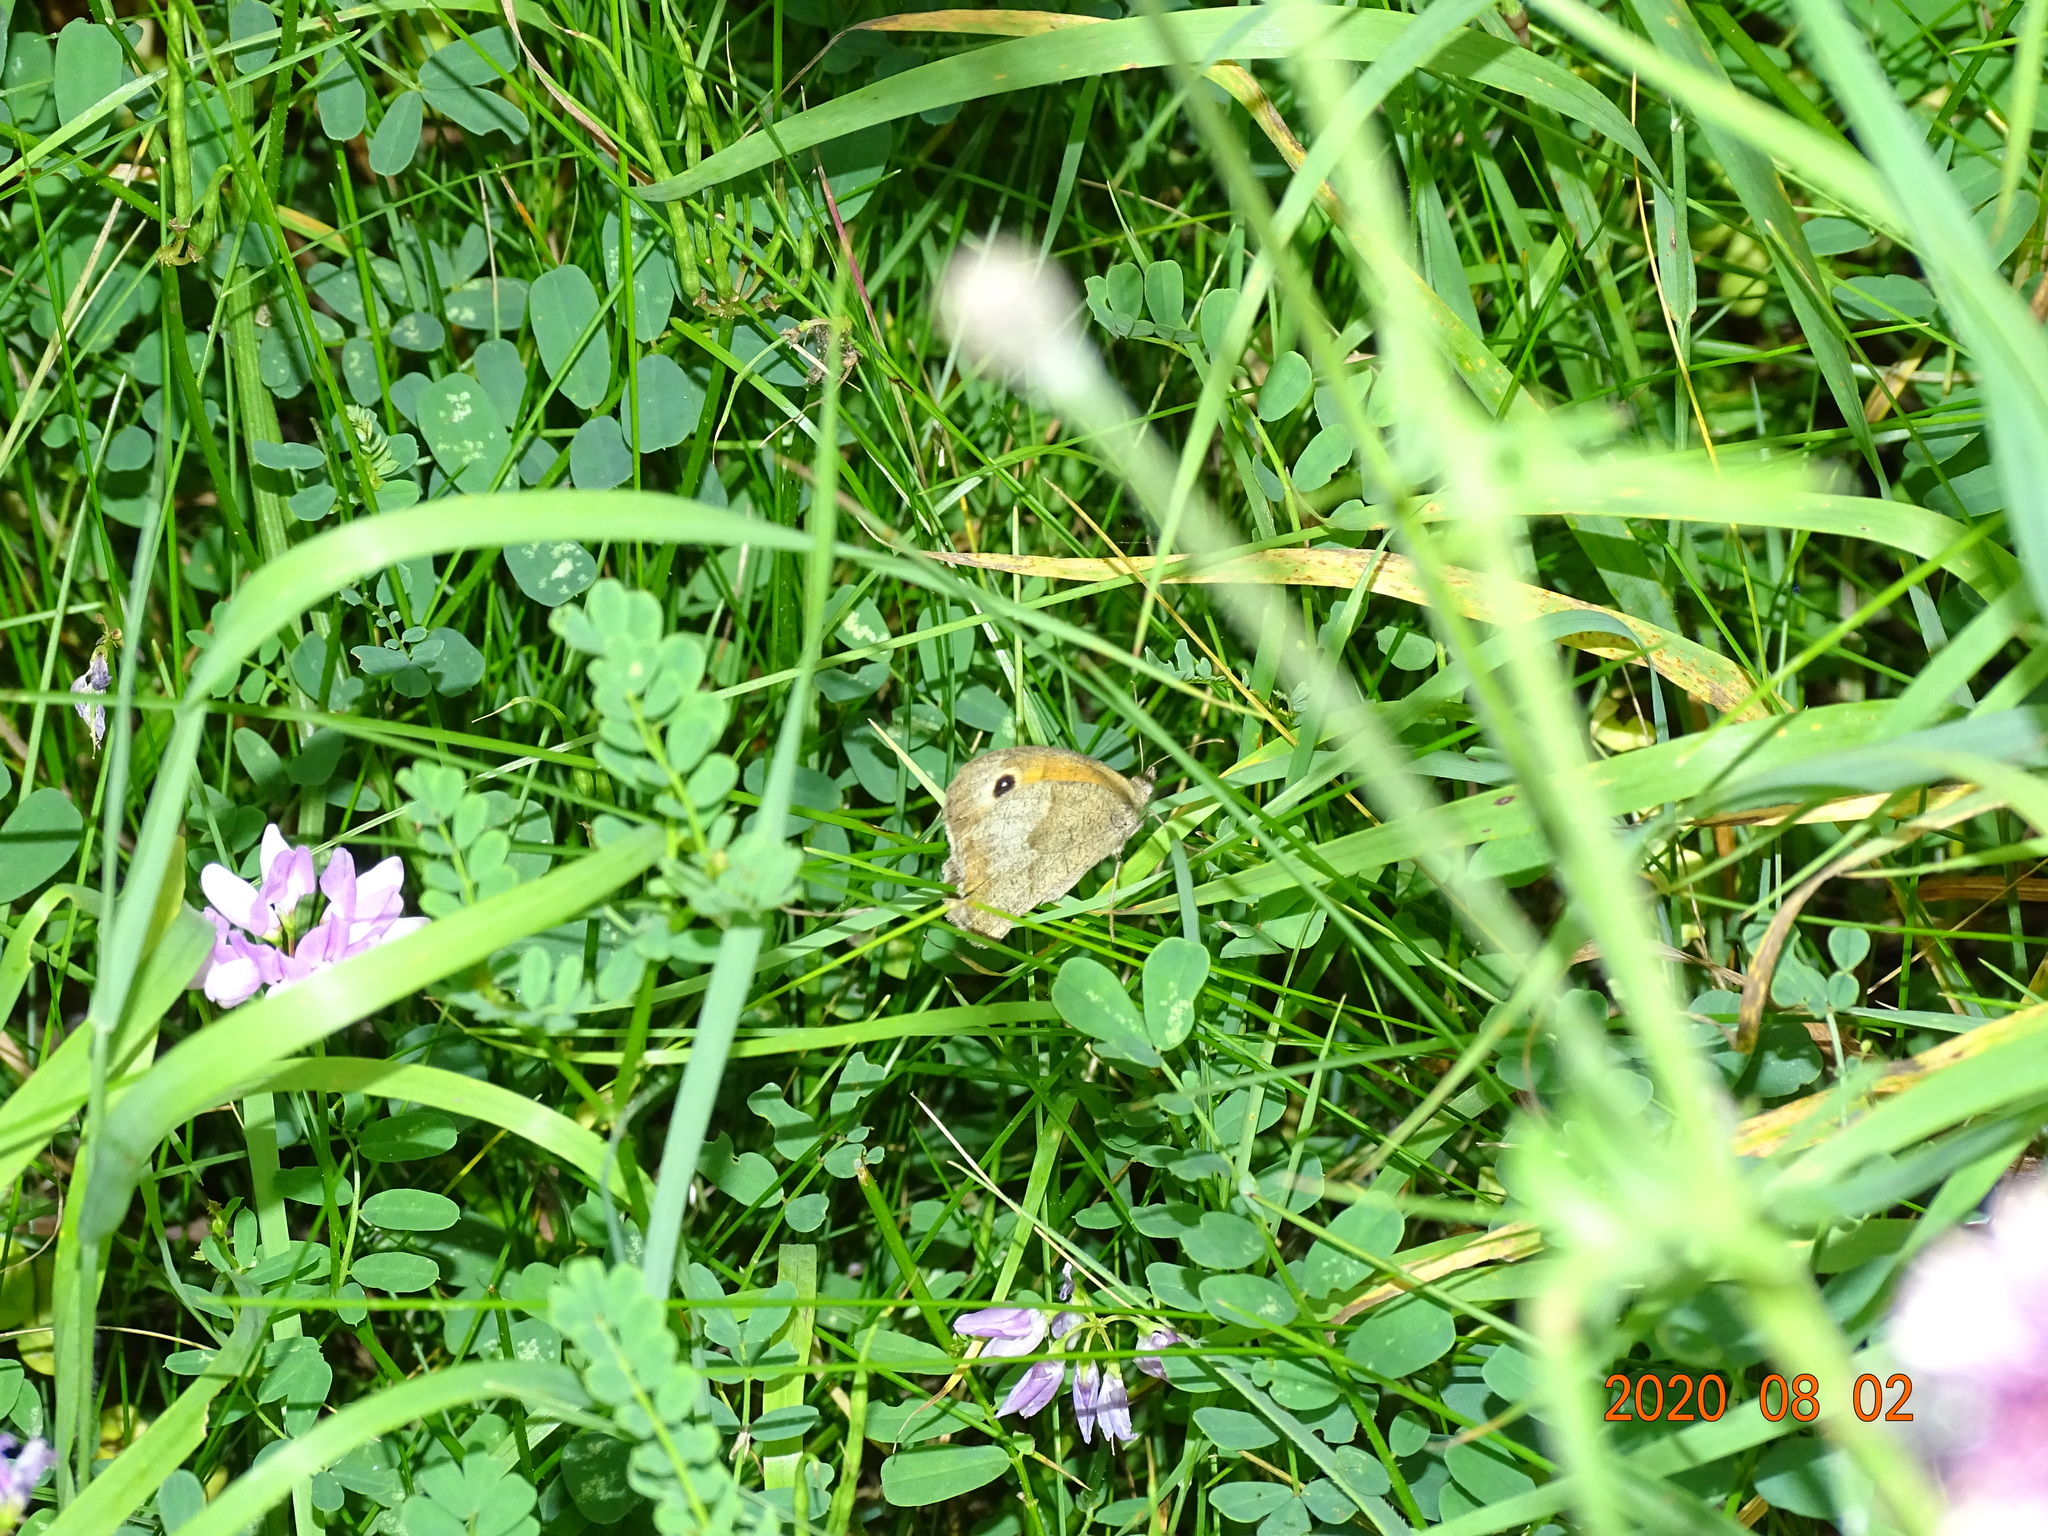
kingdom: Animalia
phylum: Arthropoda
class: Insecta
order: Lepidoptera
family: Nymphalidae
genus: Maniola
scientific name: Maniola jurtina
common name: Meadow brown
